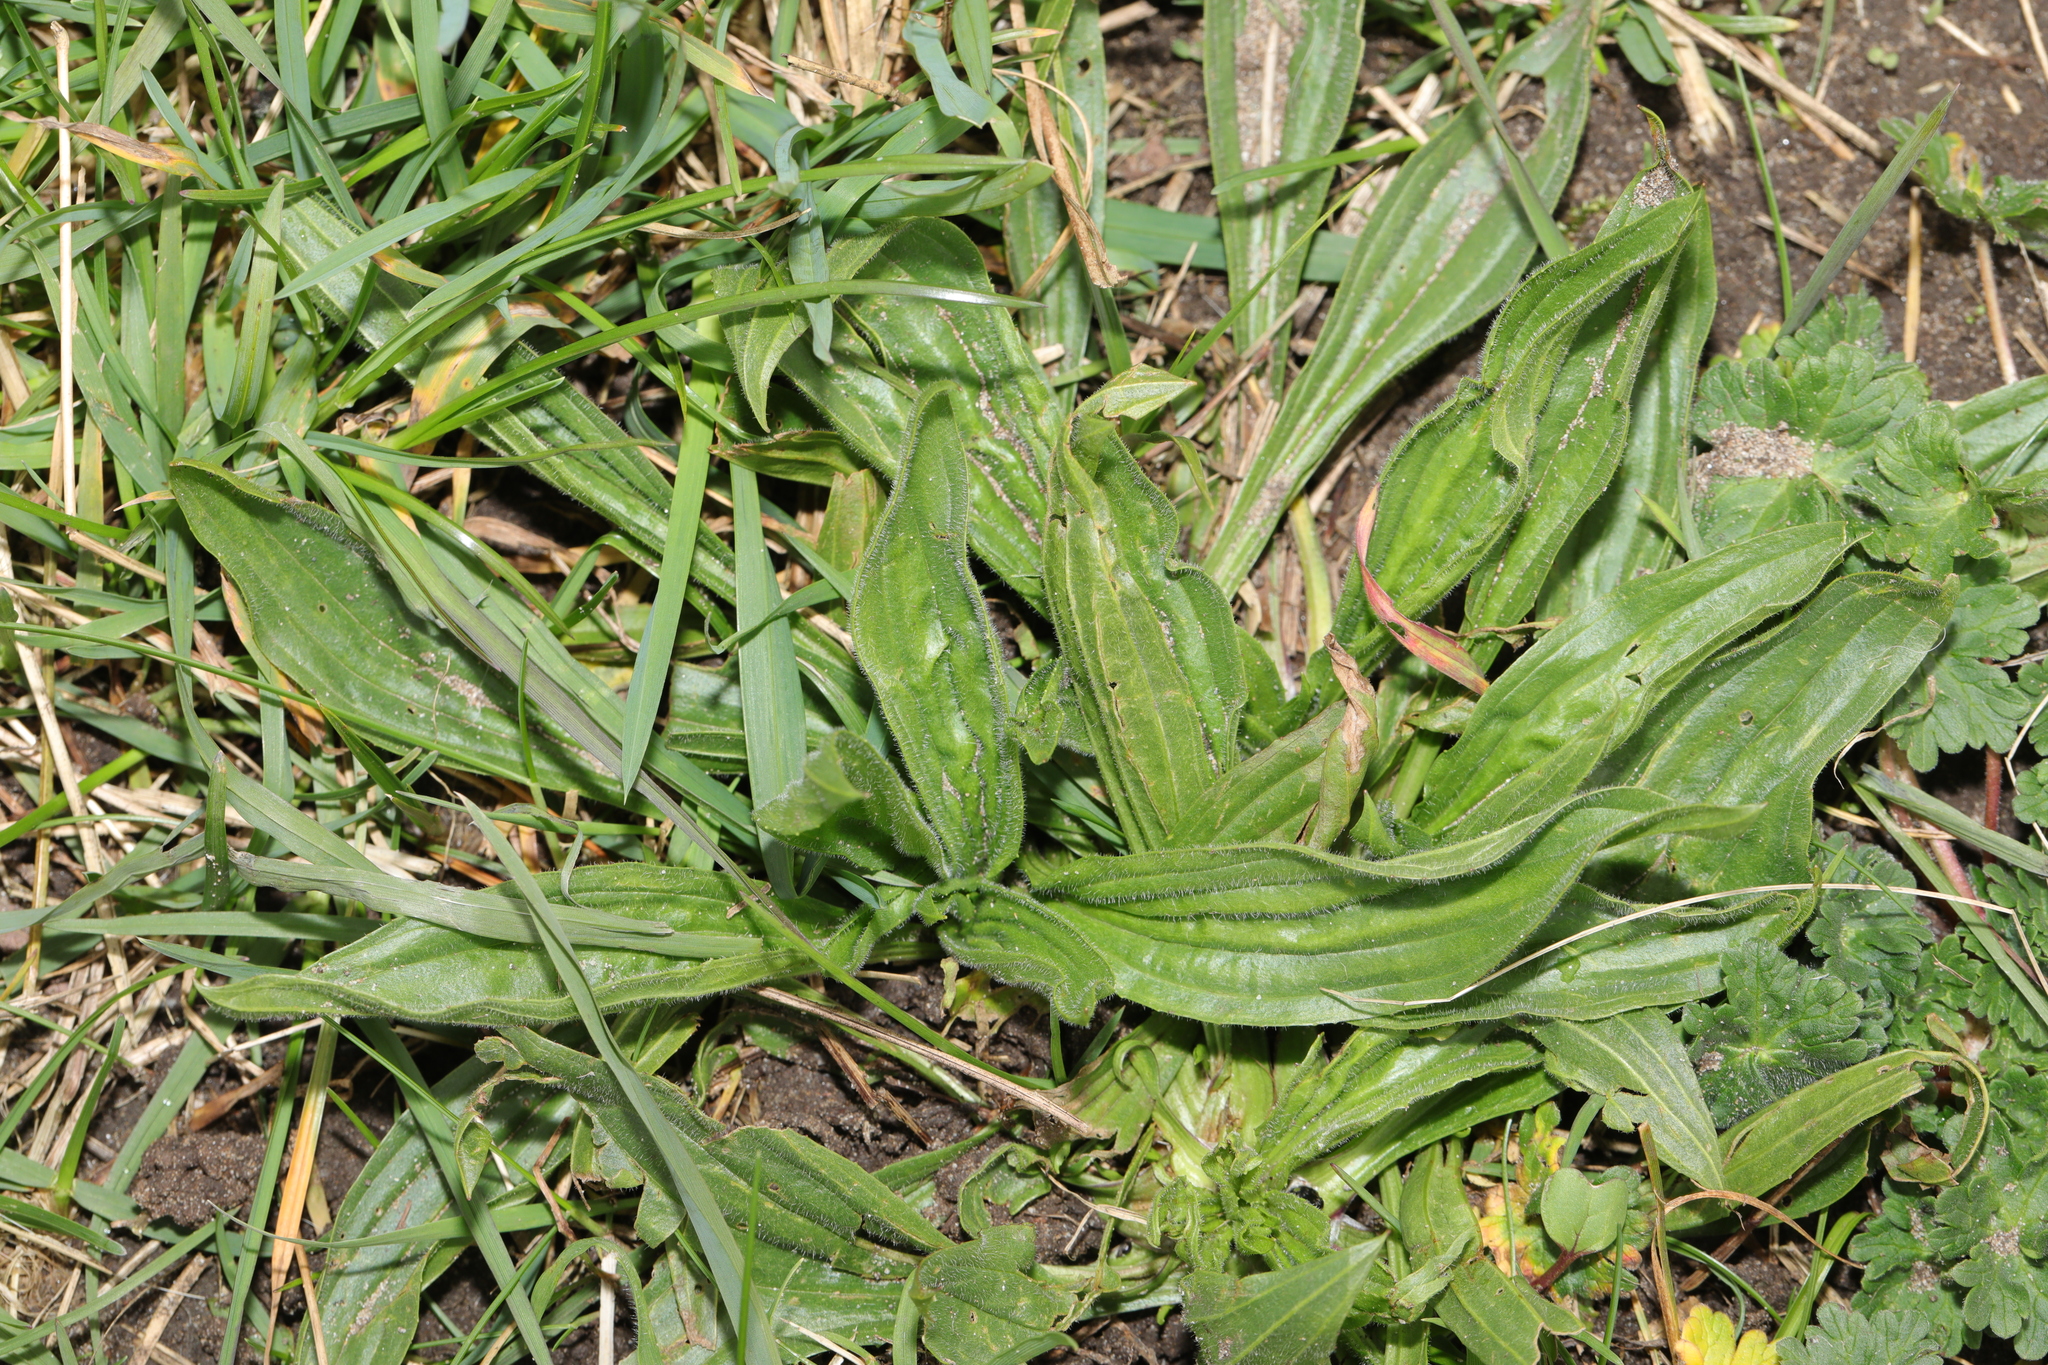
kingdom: Plantae
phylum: Tracheophyta
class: Magnoliopsida
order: Lamiales
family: Plantaginaceae
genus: Plantago
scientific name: Plantago lanceolata
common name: Ribwort plantain
